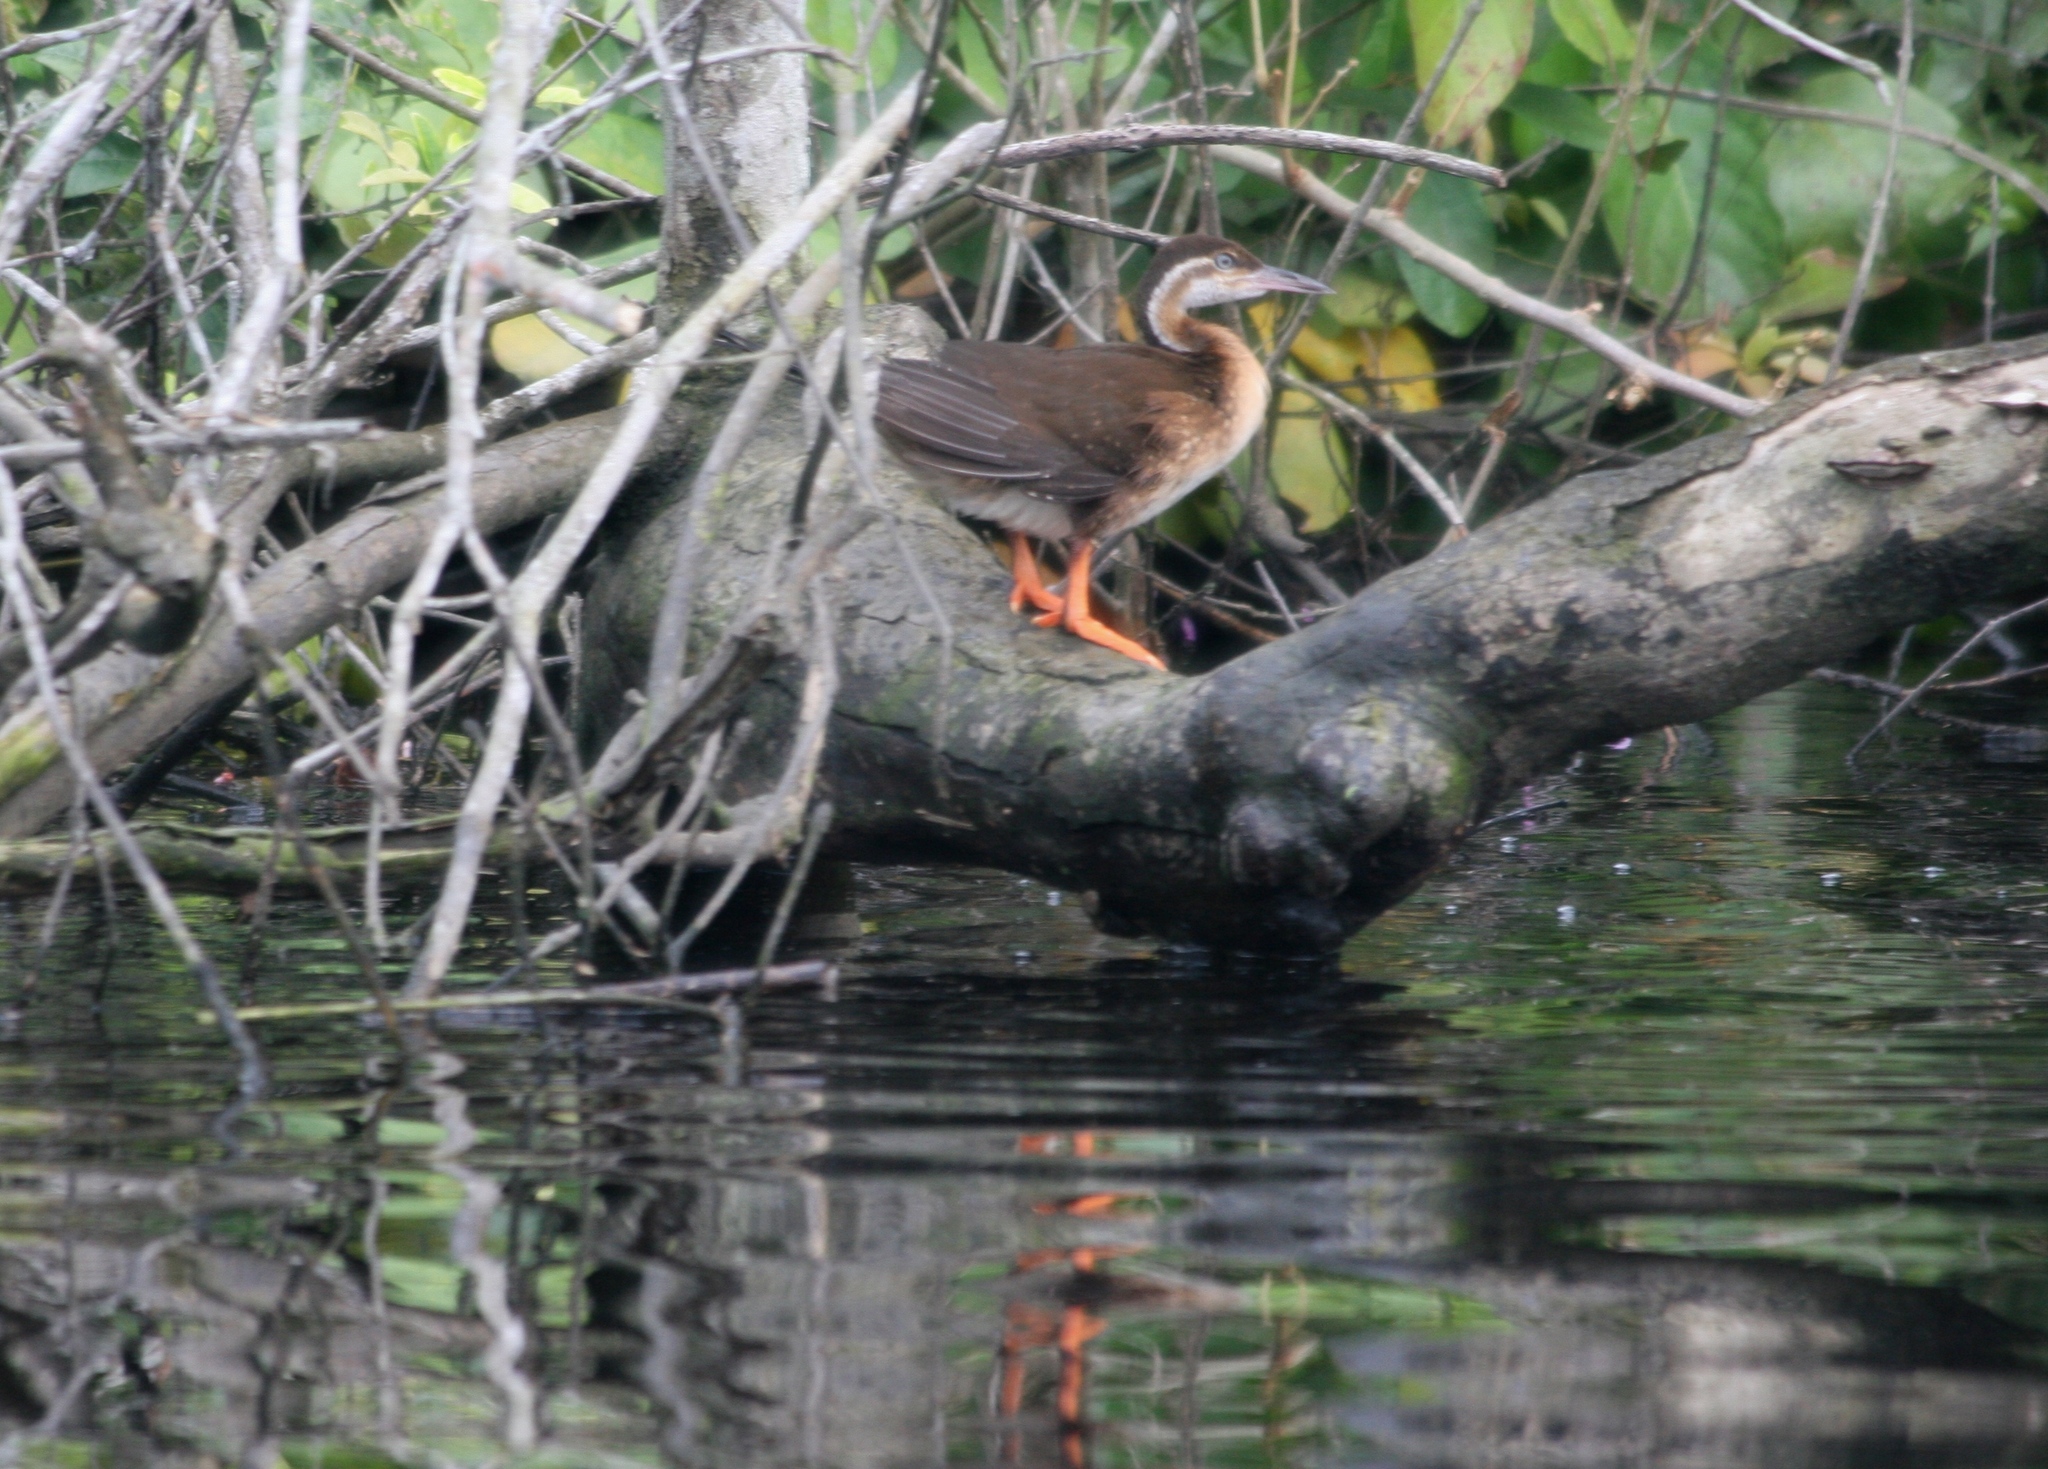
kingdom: Animalia
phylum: Chordata
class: Aves
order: Gruiformes
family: Heliornithidae
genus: Podica
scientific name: Podica senegalensis
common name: African finfoot
